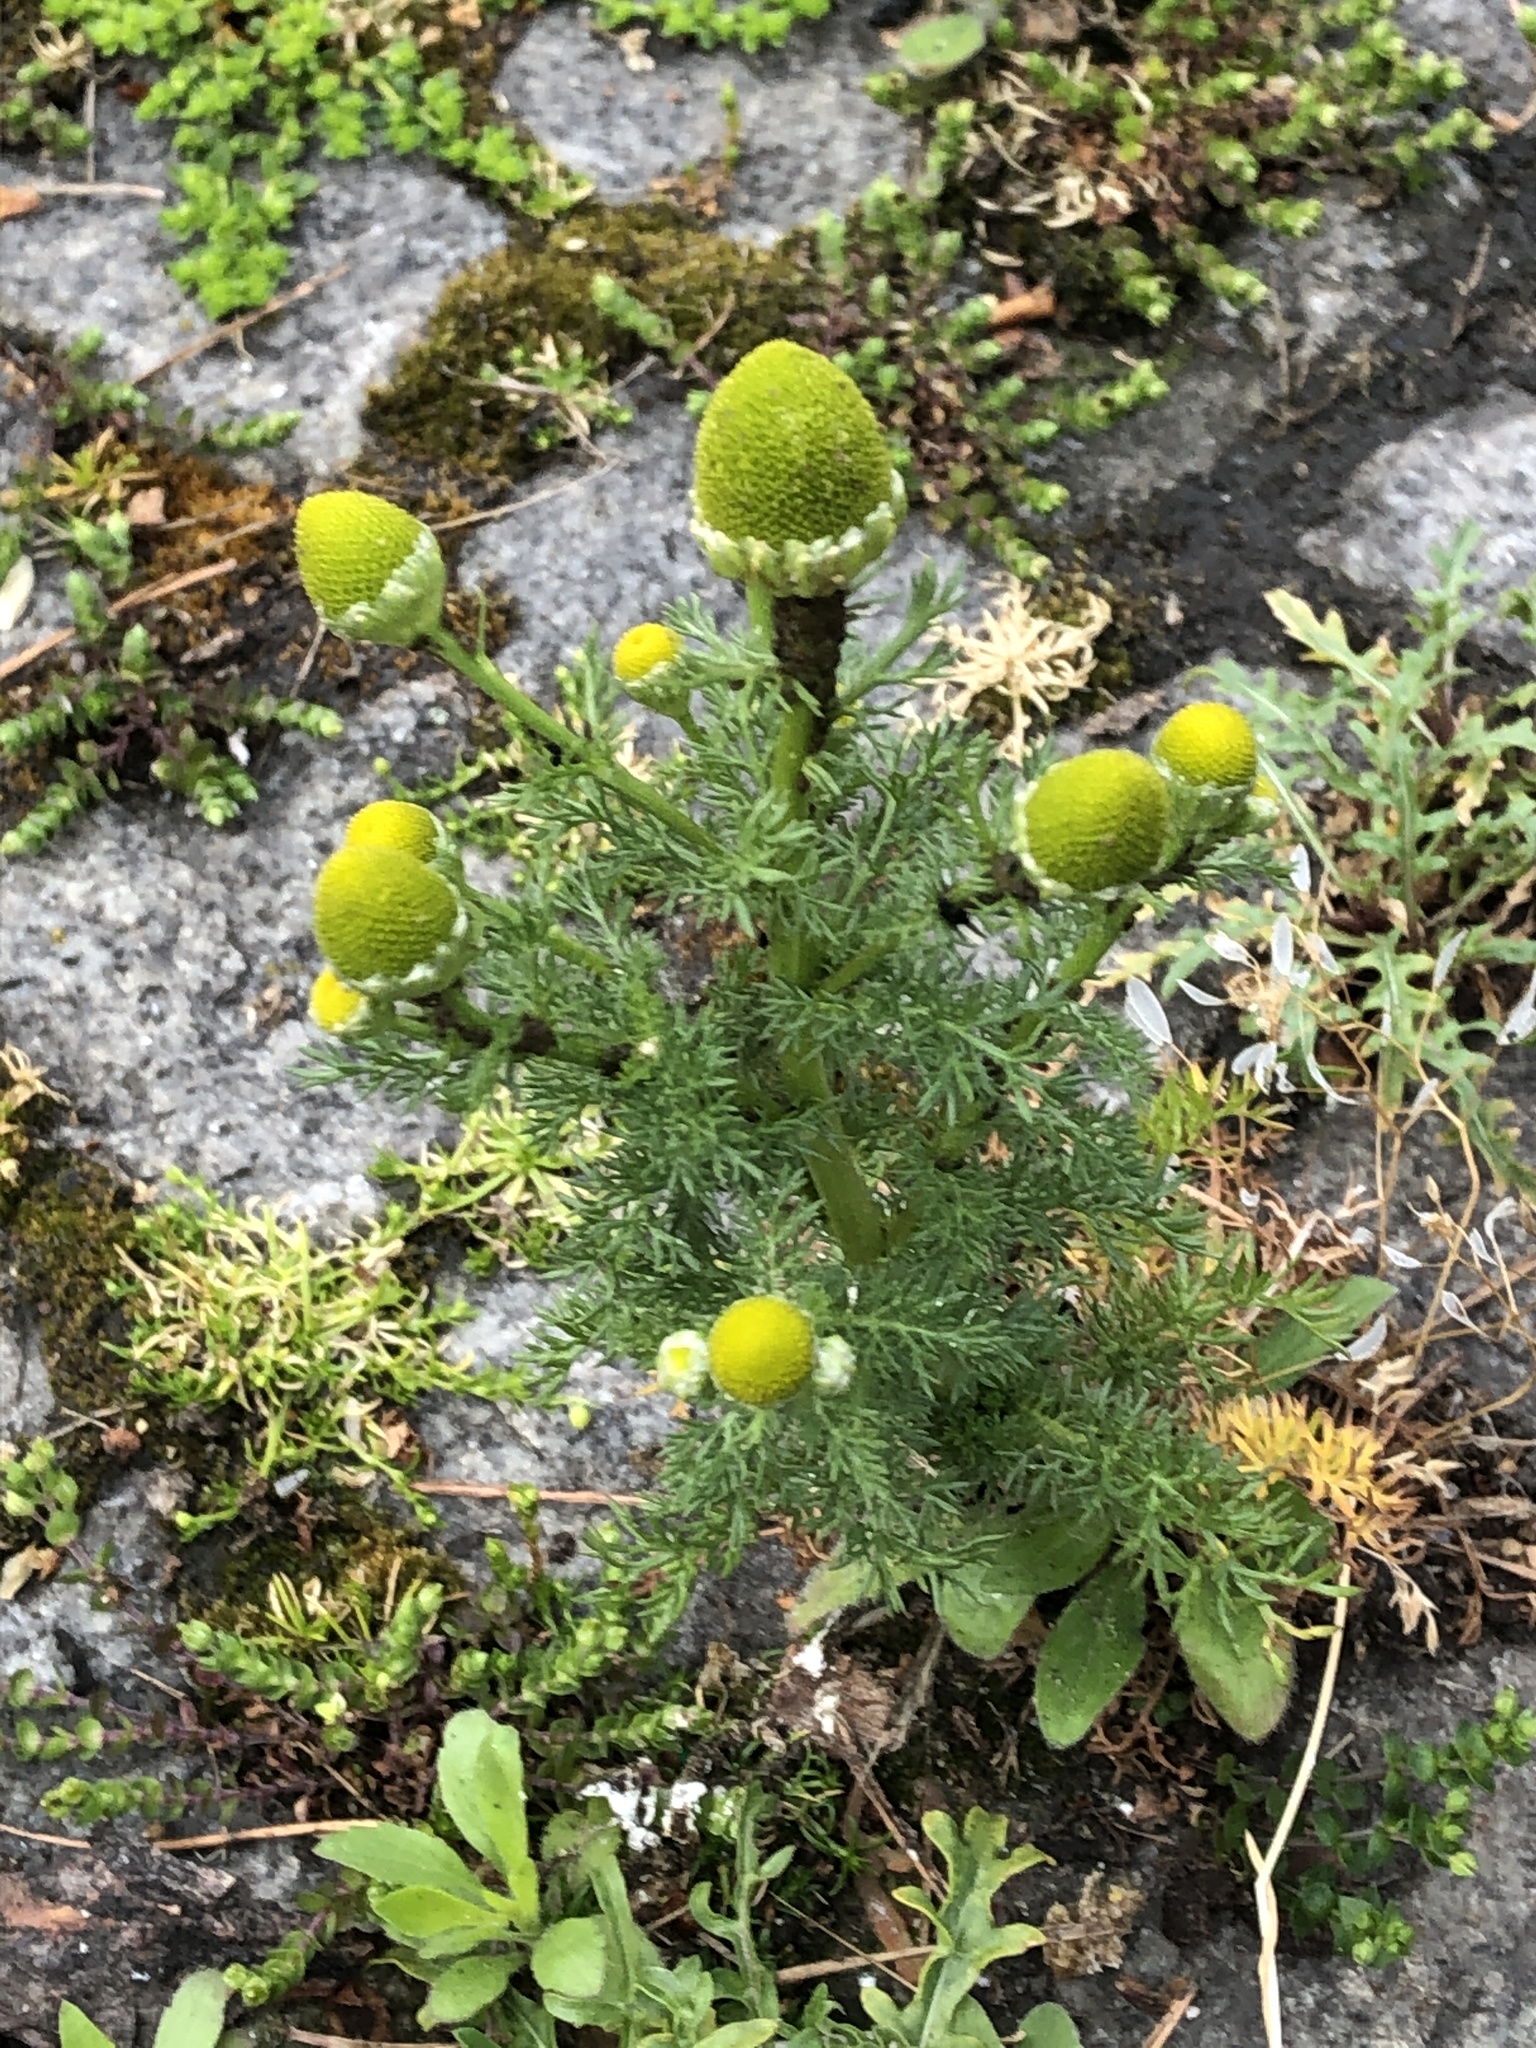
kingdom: Plantae
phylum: Tracheophyta
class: Magnoliopsida
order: Asterales
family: Asteraceae
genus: Matricaria
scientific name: Matricaria discoidea
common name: Disc mayweed
